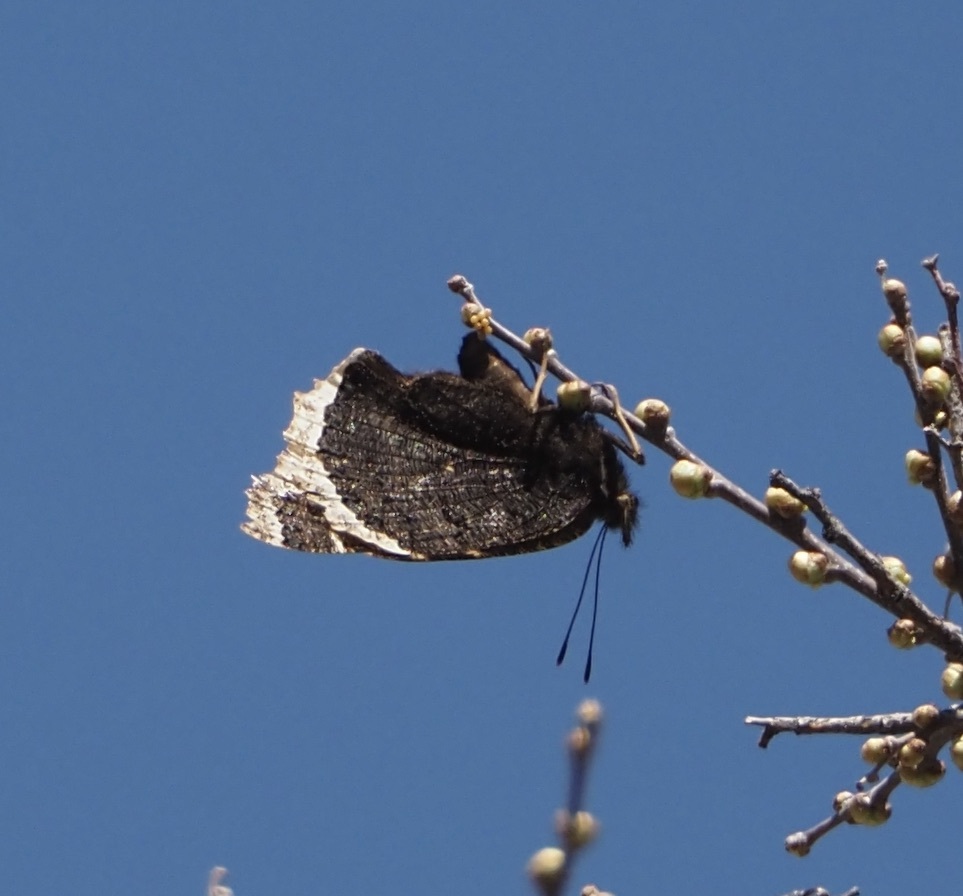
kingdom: Animalia
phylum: Arthropoda
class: Insecta
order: Lepidoptera
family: Nymphalidae
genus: Nymphalis
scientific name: Nymphalis antiopa
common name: Camberwell beauty
